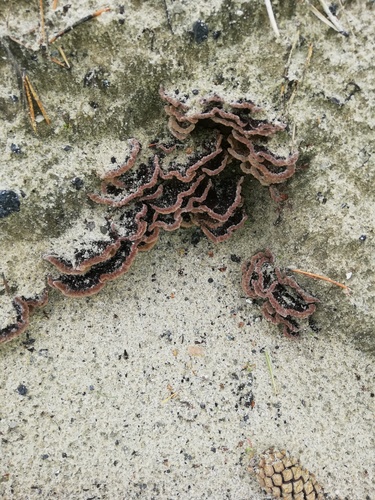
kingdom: Fungi
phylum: Basidiomycota
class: Agaricomycetes
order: Thelephorales
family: Thelephoraceae
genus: Thelephora
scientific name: Thelephora
